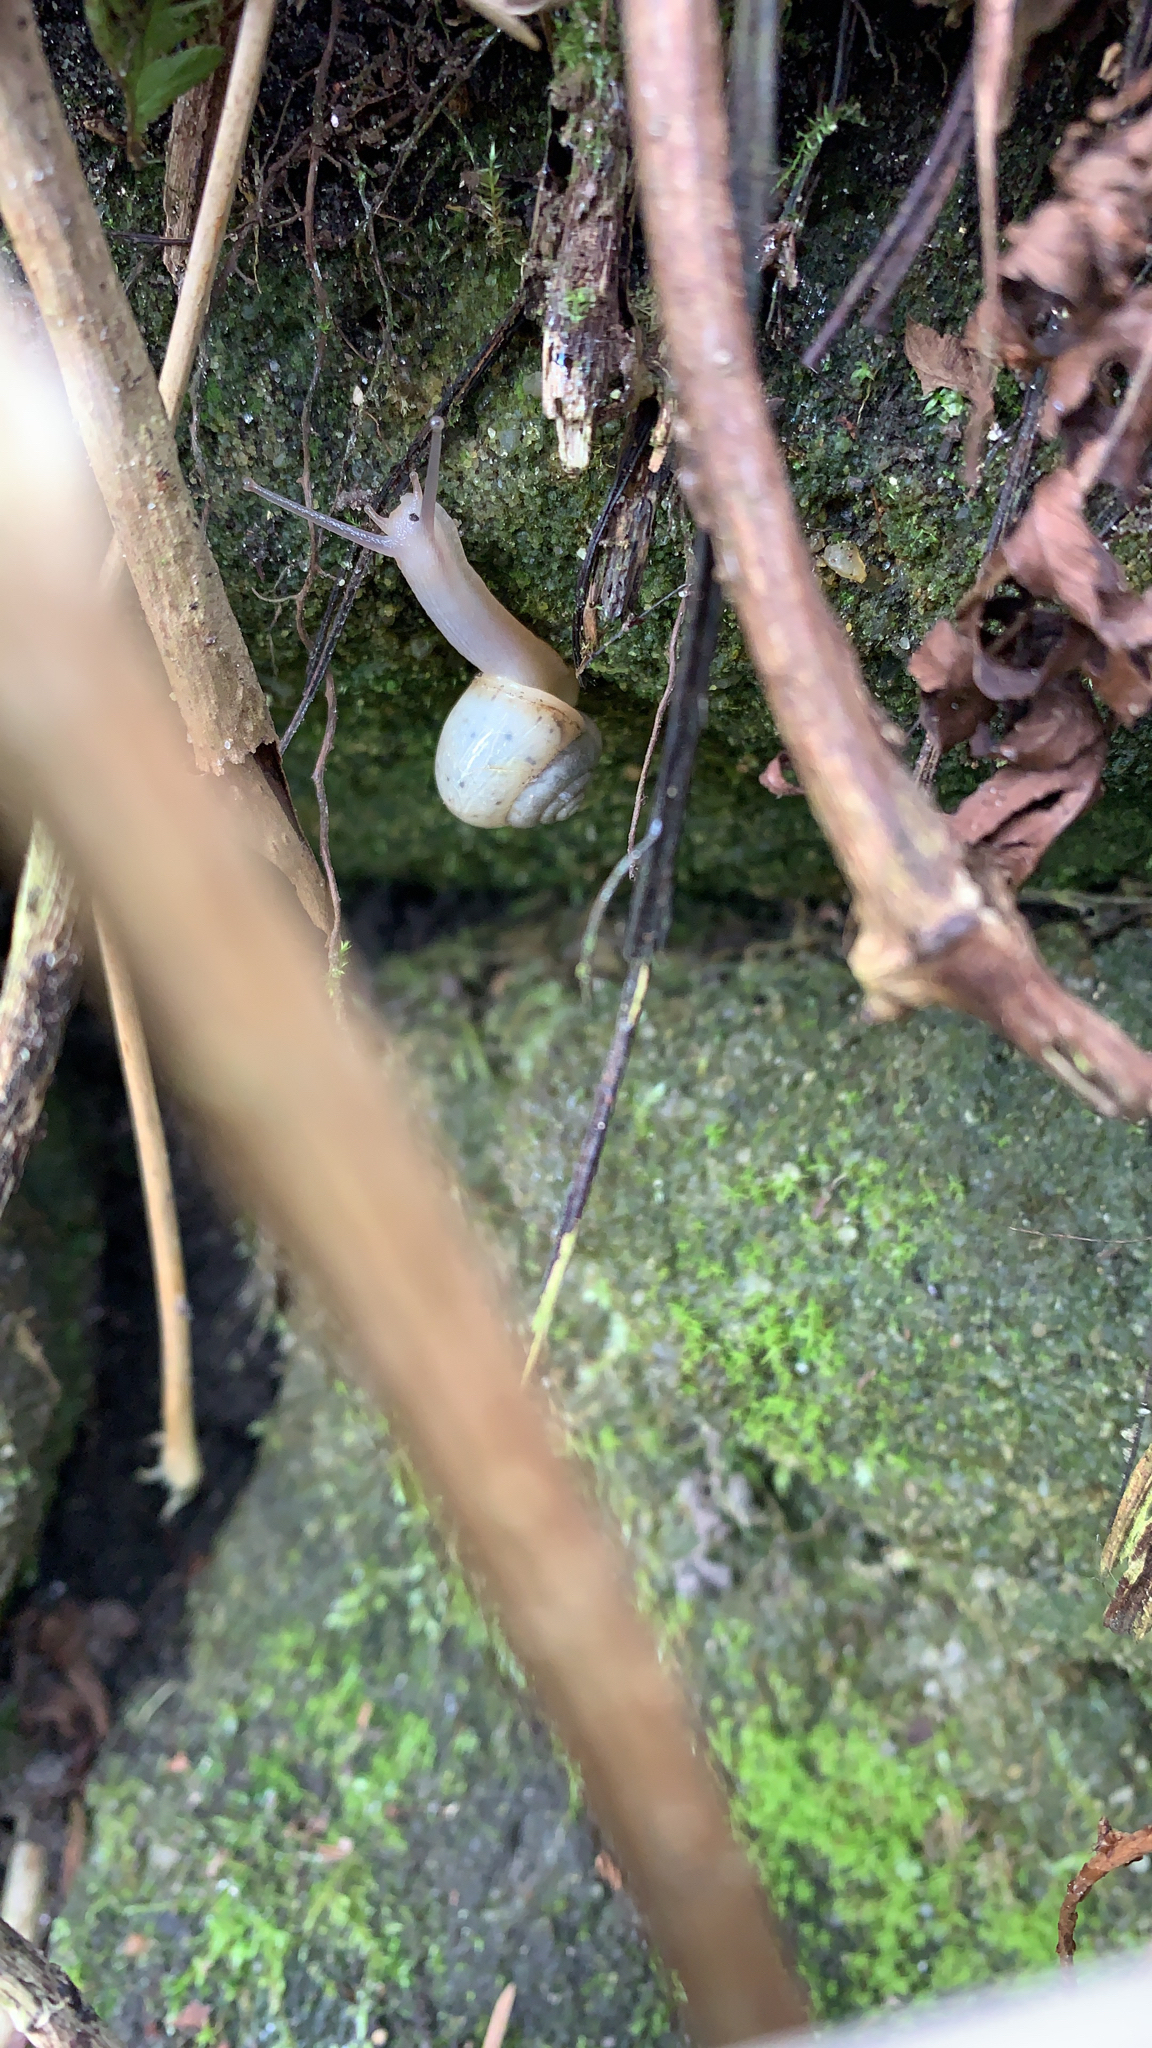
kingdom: Animalia
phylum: Mollusca
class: Gastropoda
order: Stylommatophora
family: Camaenidae
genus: Fruticicola
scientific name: Fruticicola fruticum
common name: Bush snail
